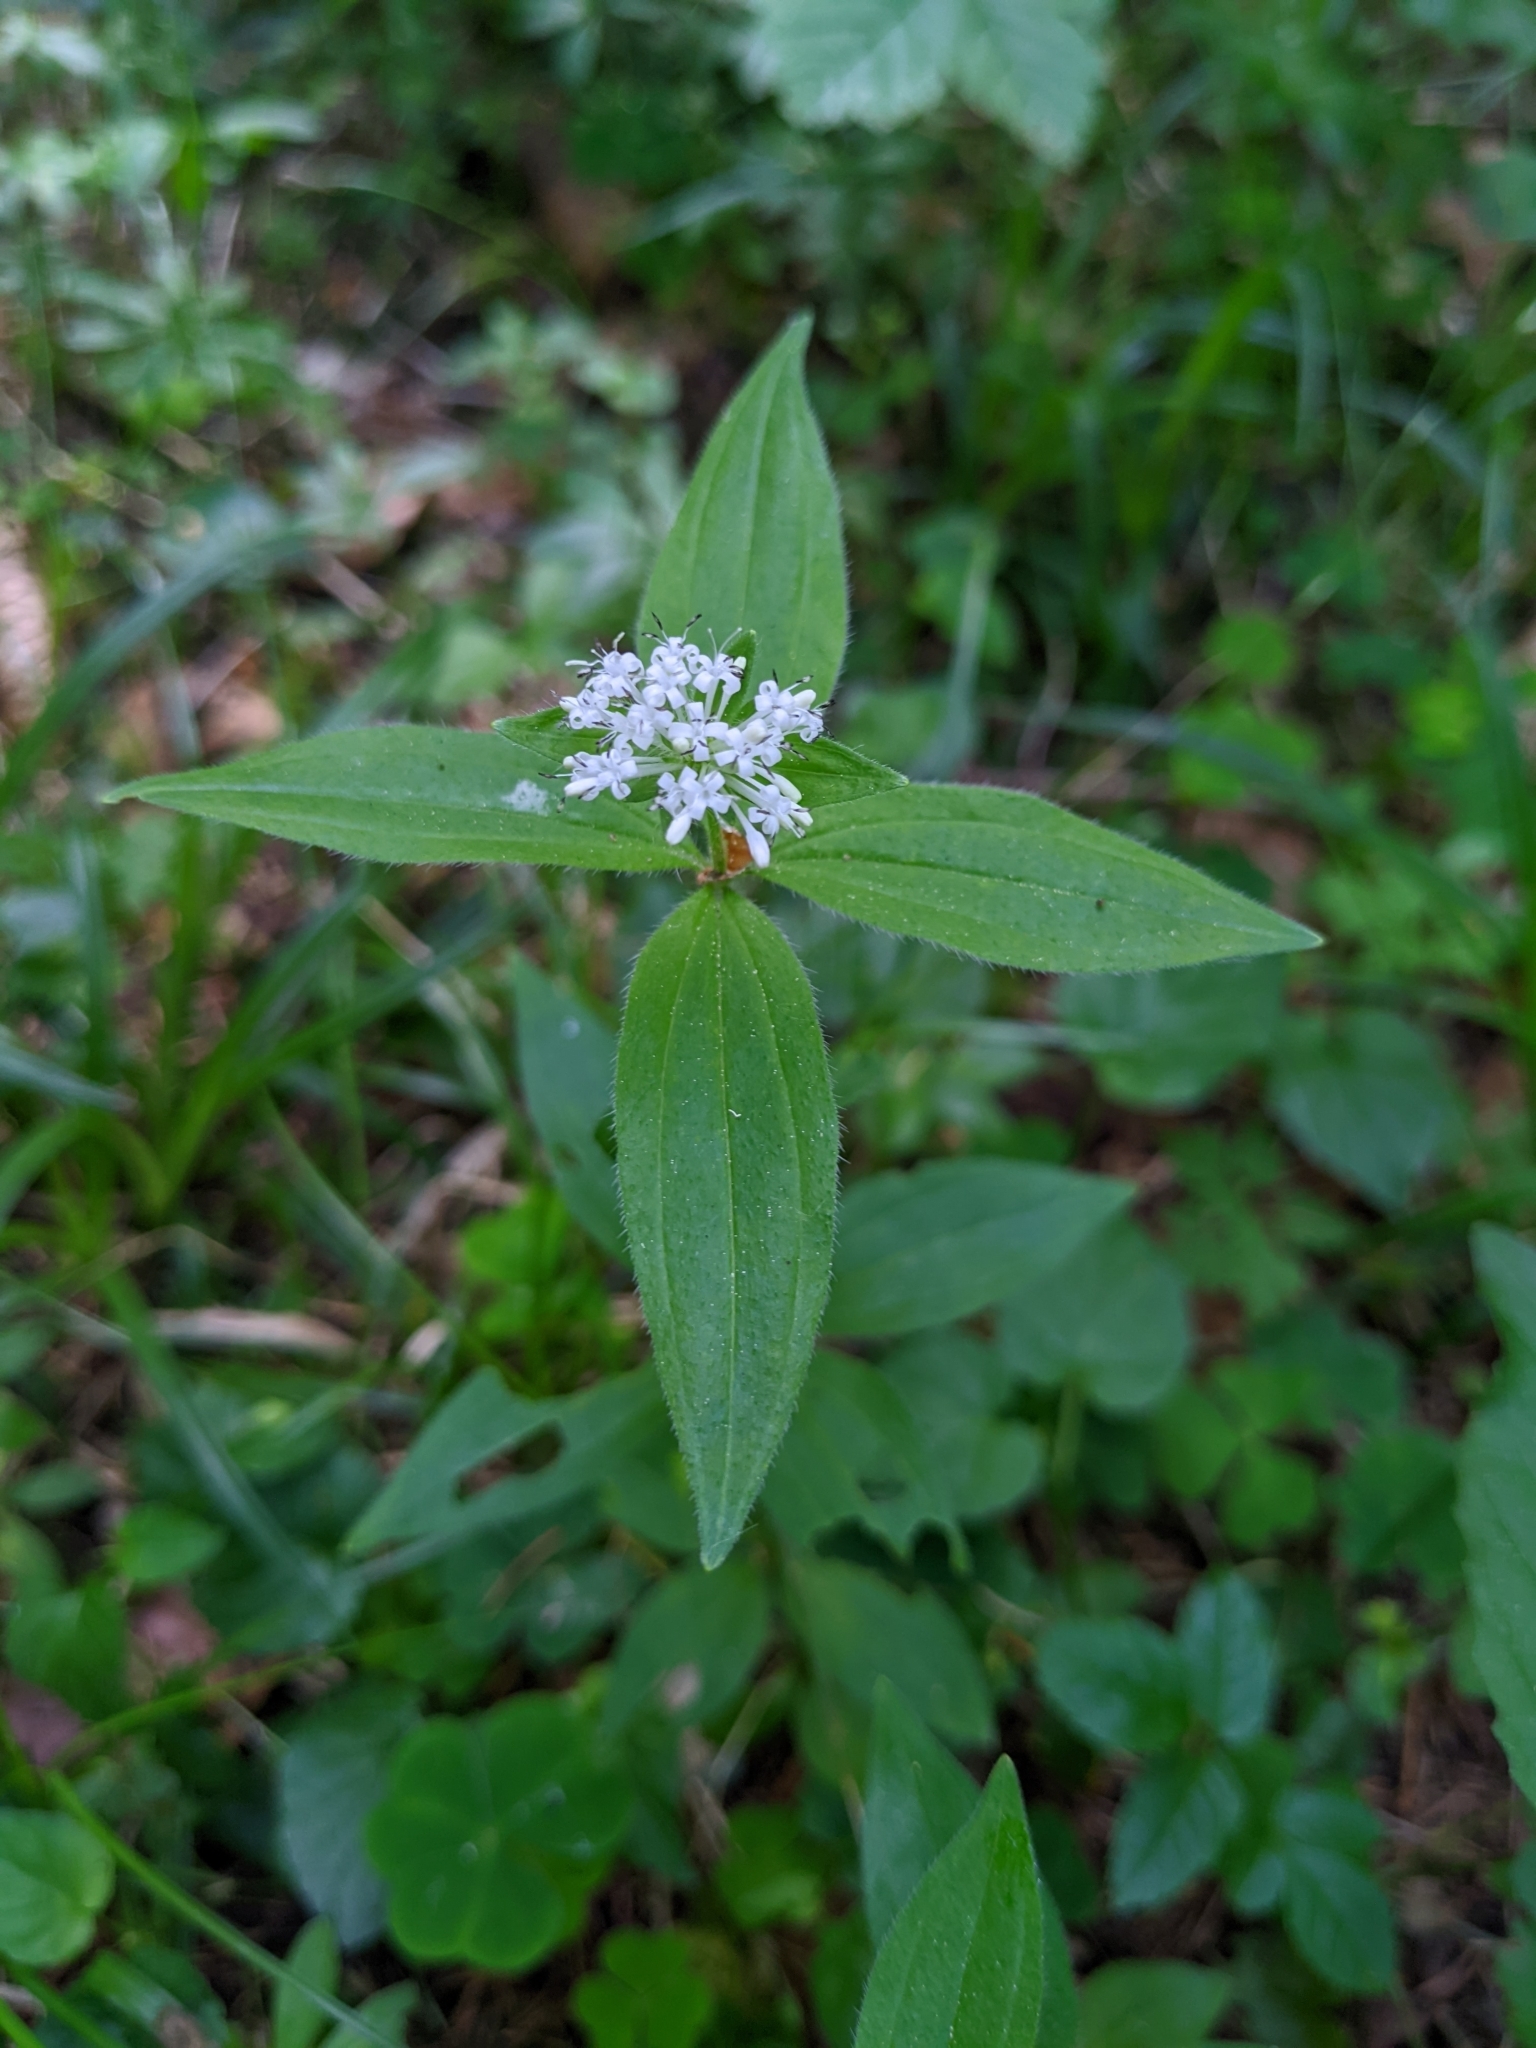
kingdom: Plantae
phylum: Tracheophyta
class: Magnoliopsida
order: Gentianales
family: Rubiaceae
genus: Asperula
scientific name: Asperula taurina
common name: Pink woodruff
